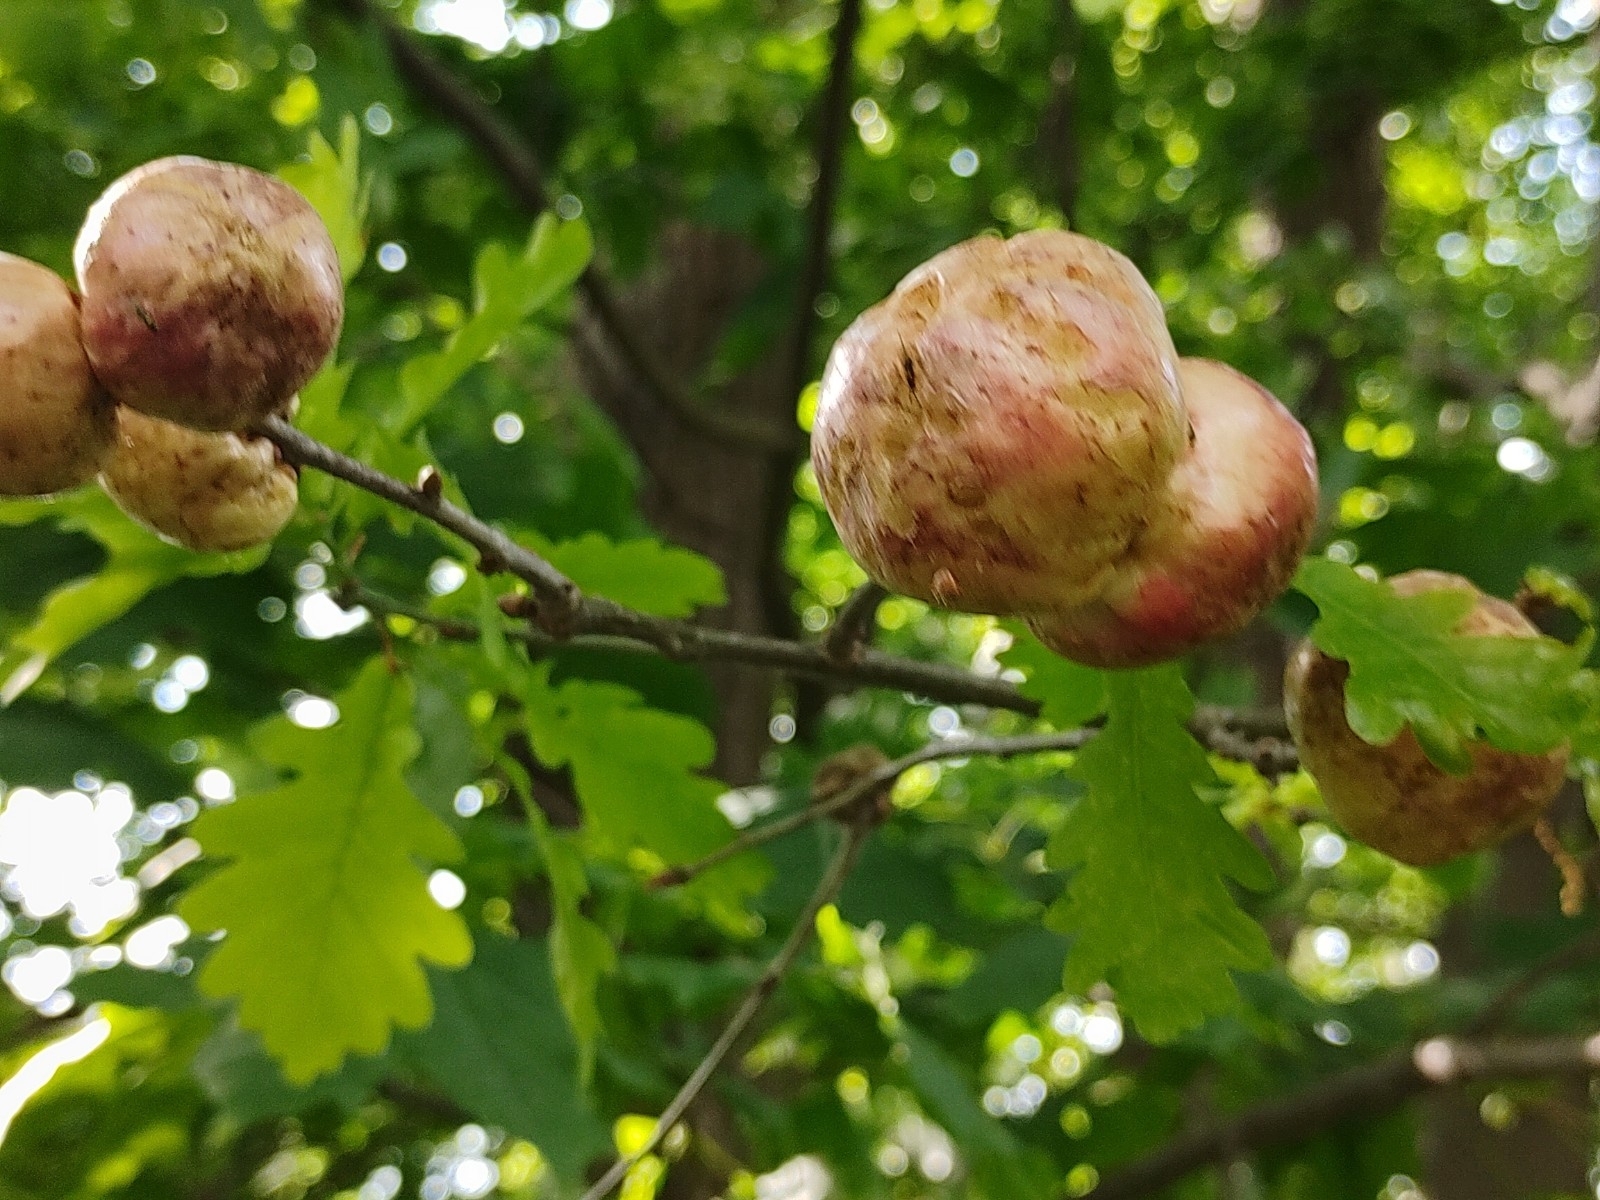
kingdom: Animalia
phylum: Arthropoda
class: Insecta
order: Hymenoptera
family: Cynipidae
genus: Biorhiza
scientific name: Biorhiza pallida
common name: Oak apple
